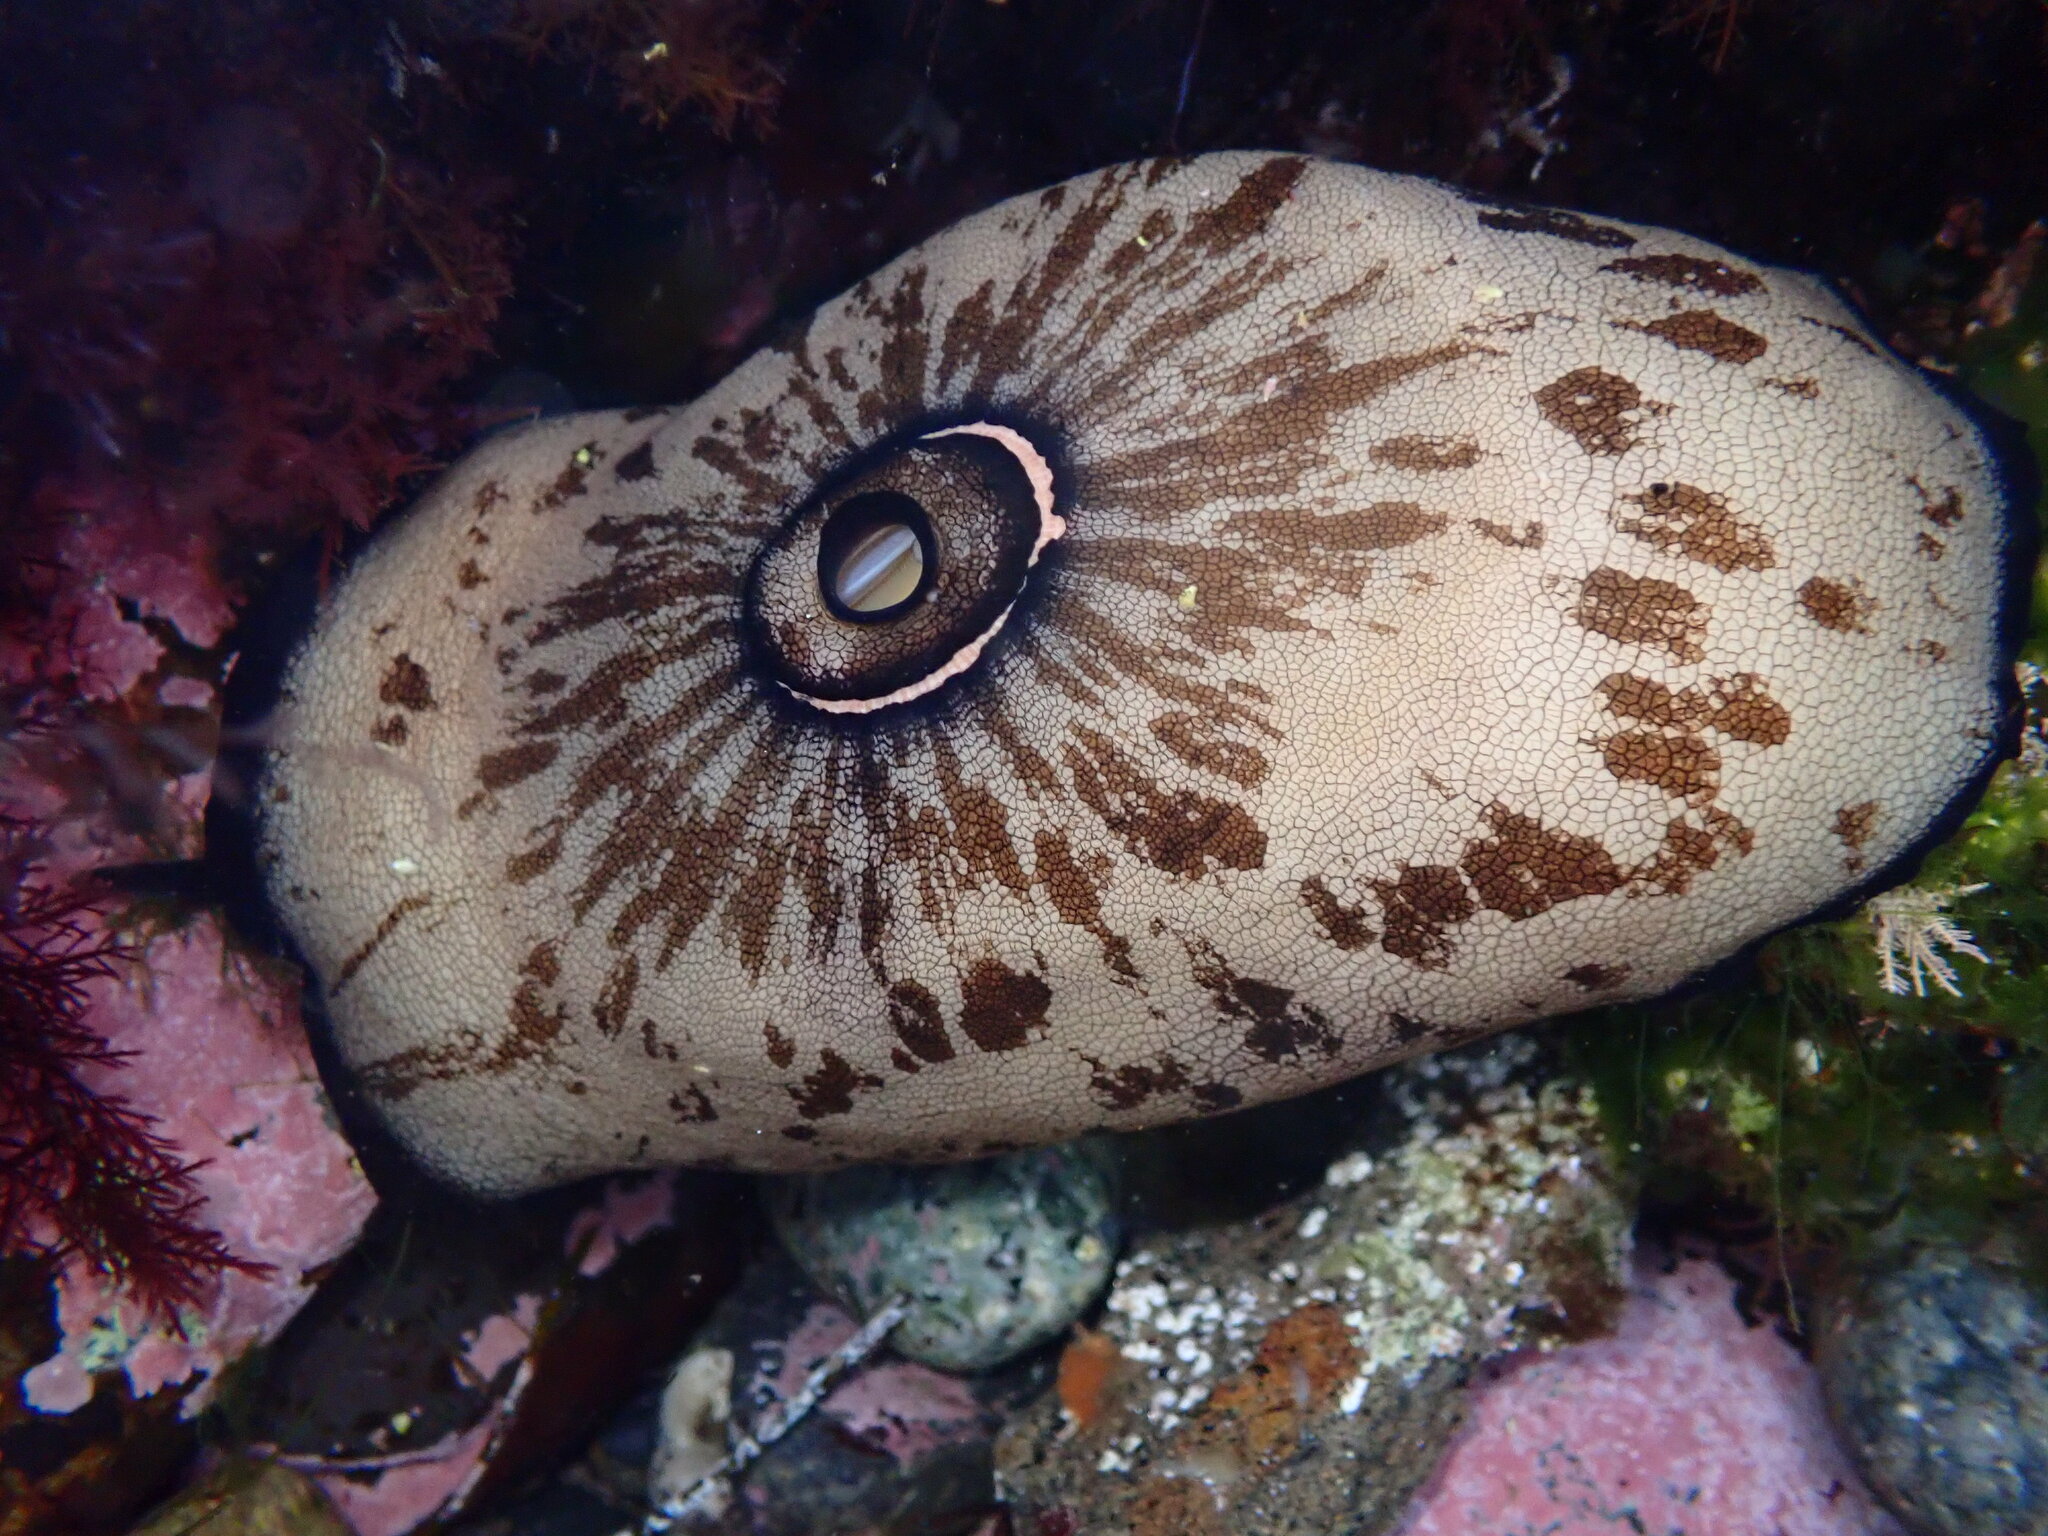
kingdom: Animalia
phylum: Mollusca
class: Gastropoda
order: Lepetellida
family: Fissurellidae
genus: Megathura
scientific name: Megathura crenulata
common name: Giant keyhole limpet
